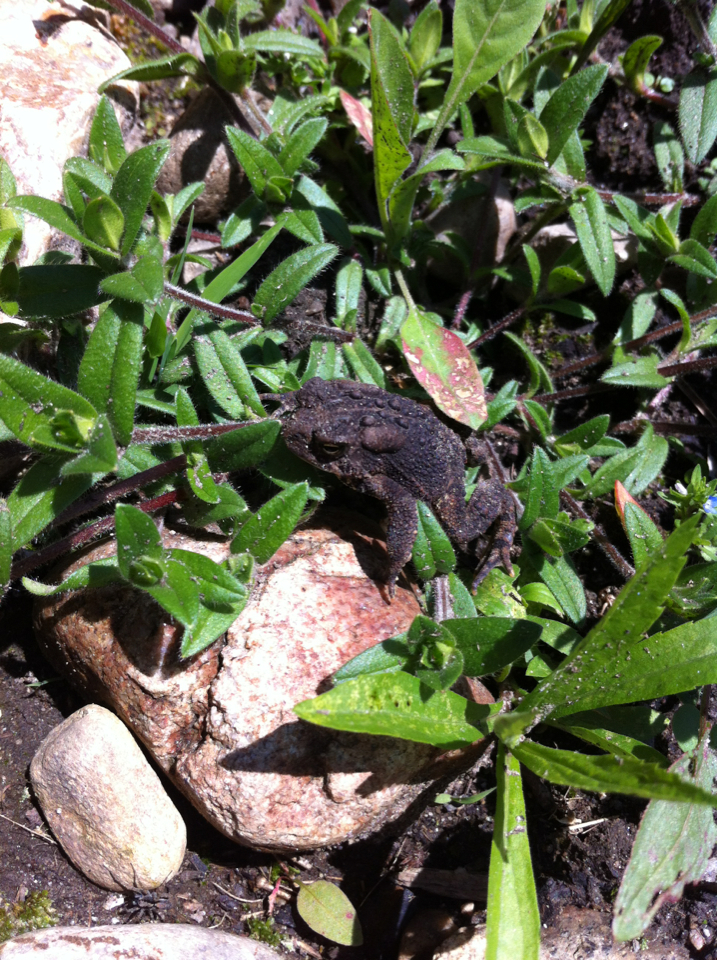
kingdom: Animalia
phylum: Chordata
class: Amphibia
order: Anura
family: Bufonidae
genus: Anaxyrus
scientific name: Anaxyrus americanus
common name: American toad
